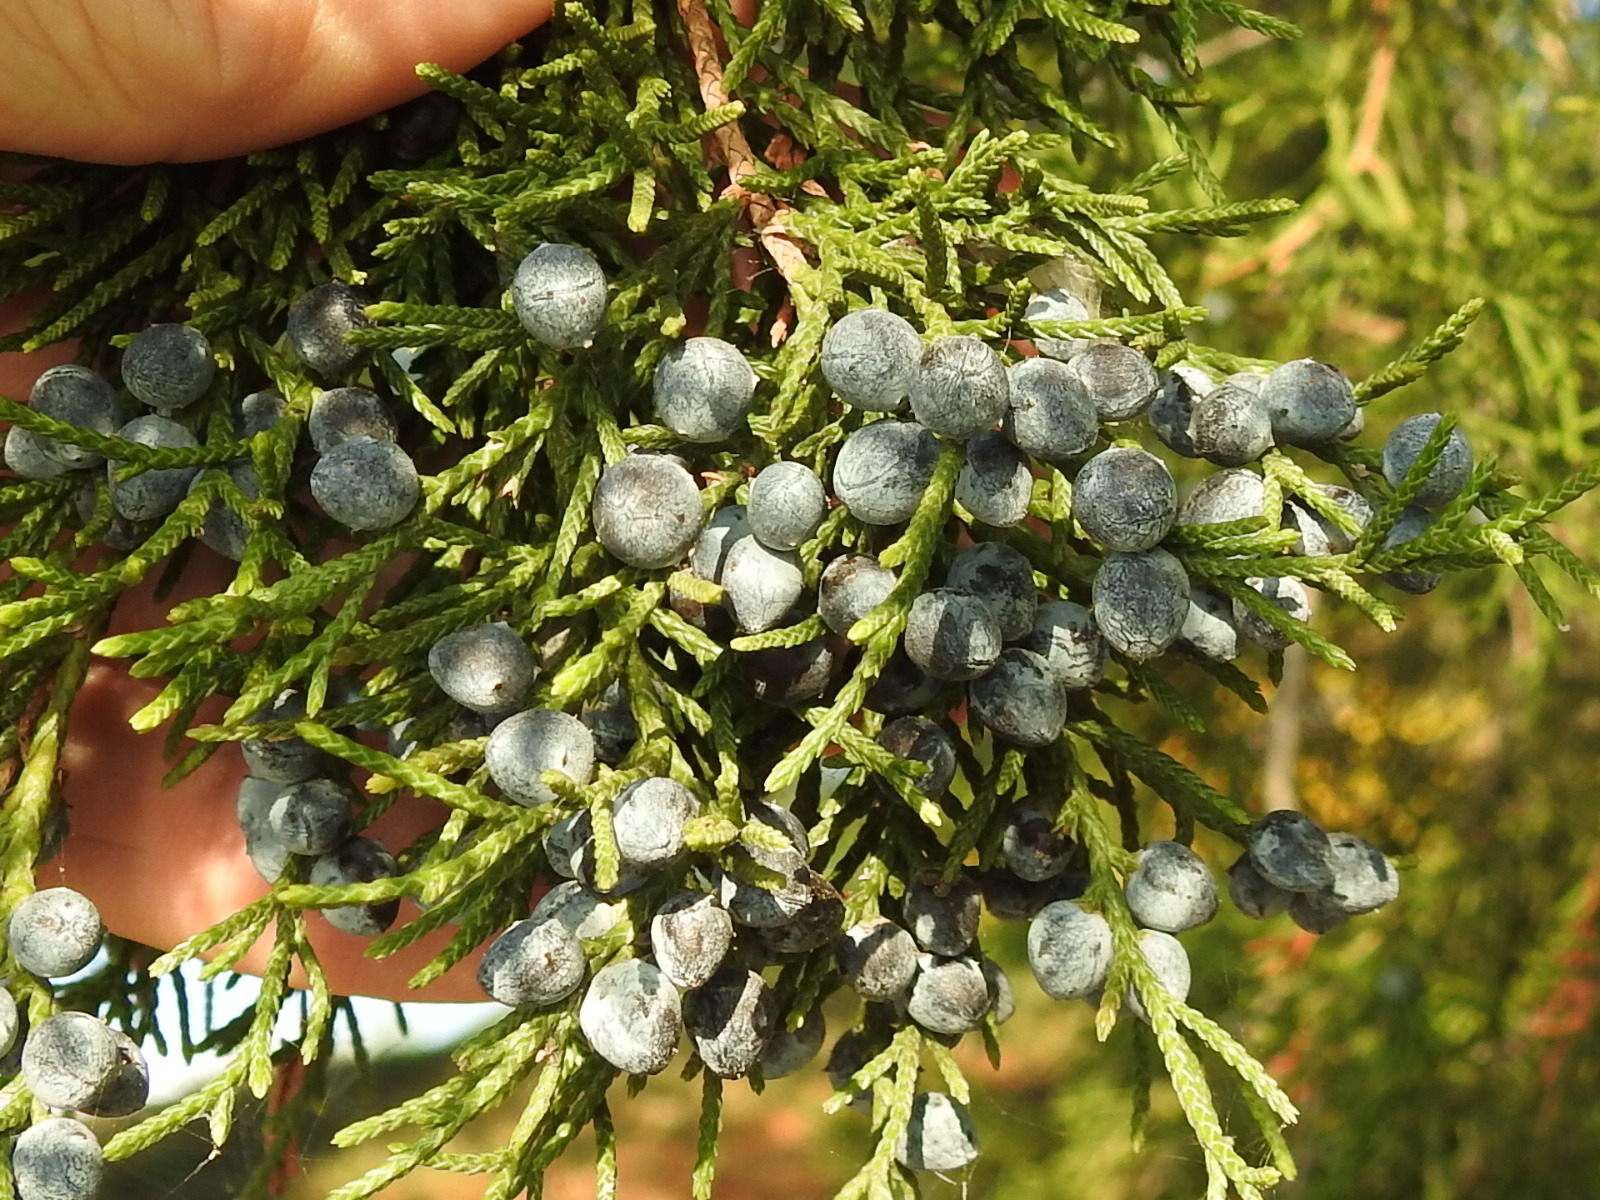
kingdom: Plantae
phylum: Tracheophyta
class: Pinopsida
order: Pinales
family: Cupressaceae
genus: Juniperus
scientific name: Juniperus virginiana
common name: Red juniper
